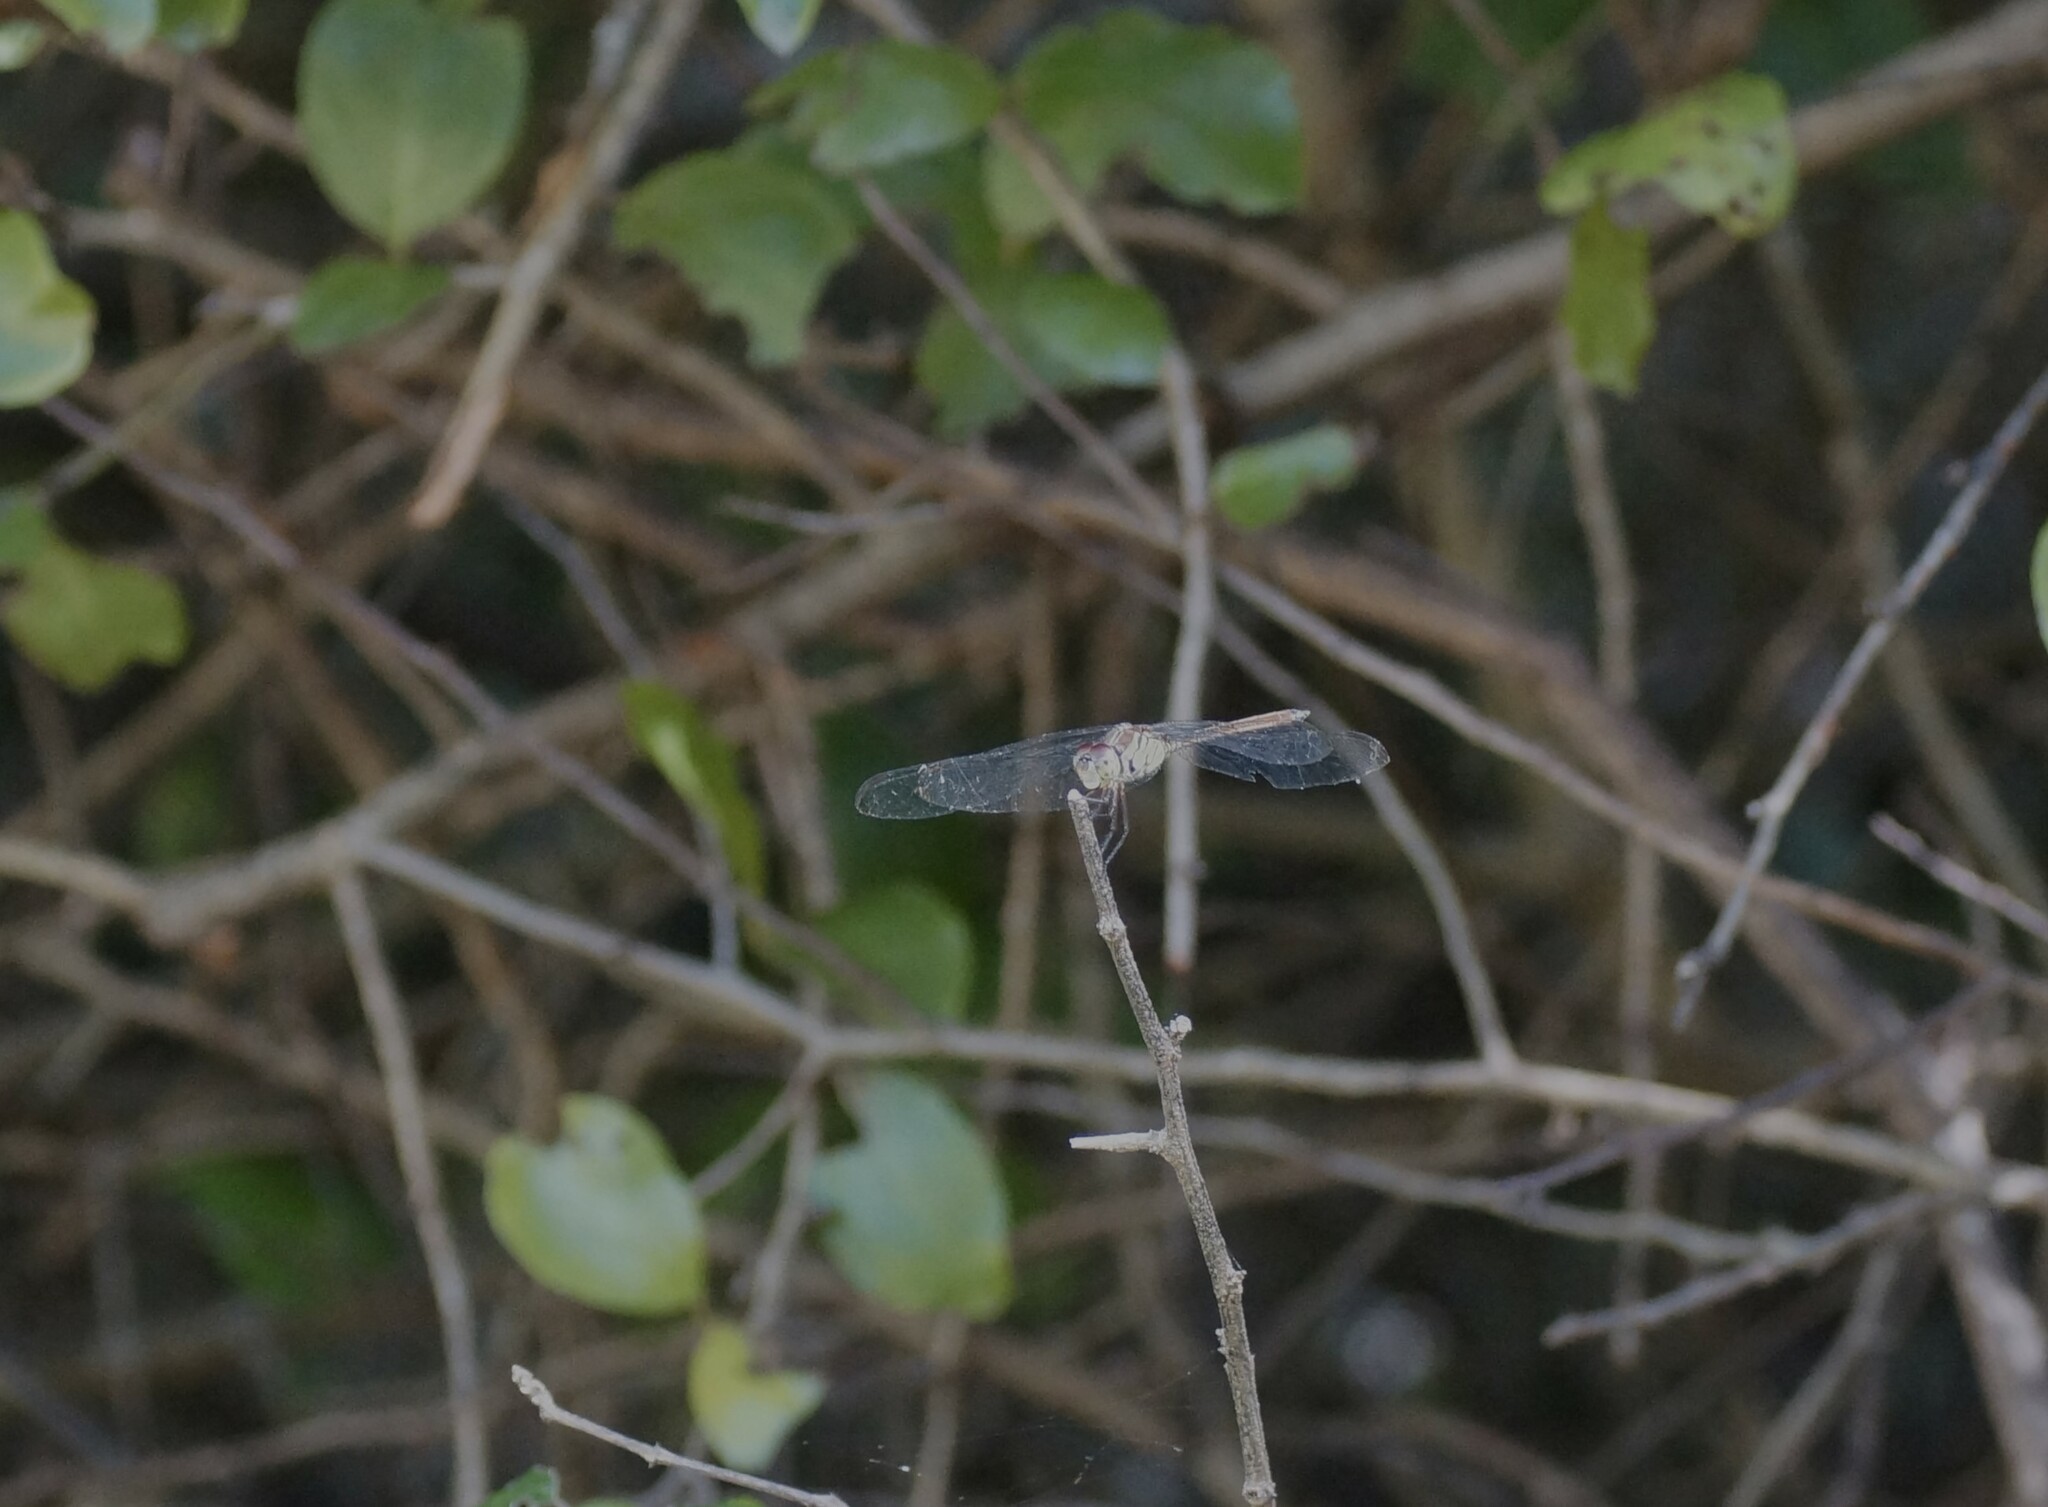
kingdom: Animalia
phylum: Arthropoda
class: Insecta
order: Odonata
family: Libellulidae
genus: Lathrecista
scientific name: Lathrecista asiatica
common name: Scarlet grenadier
